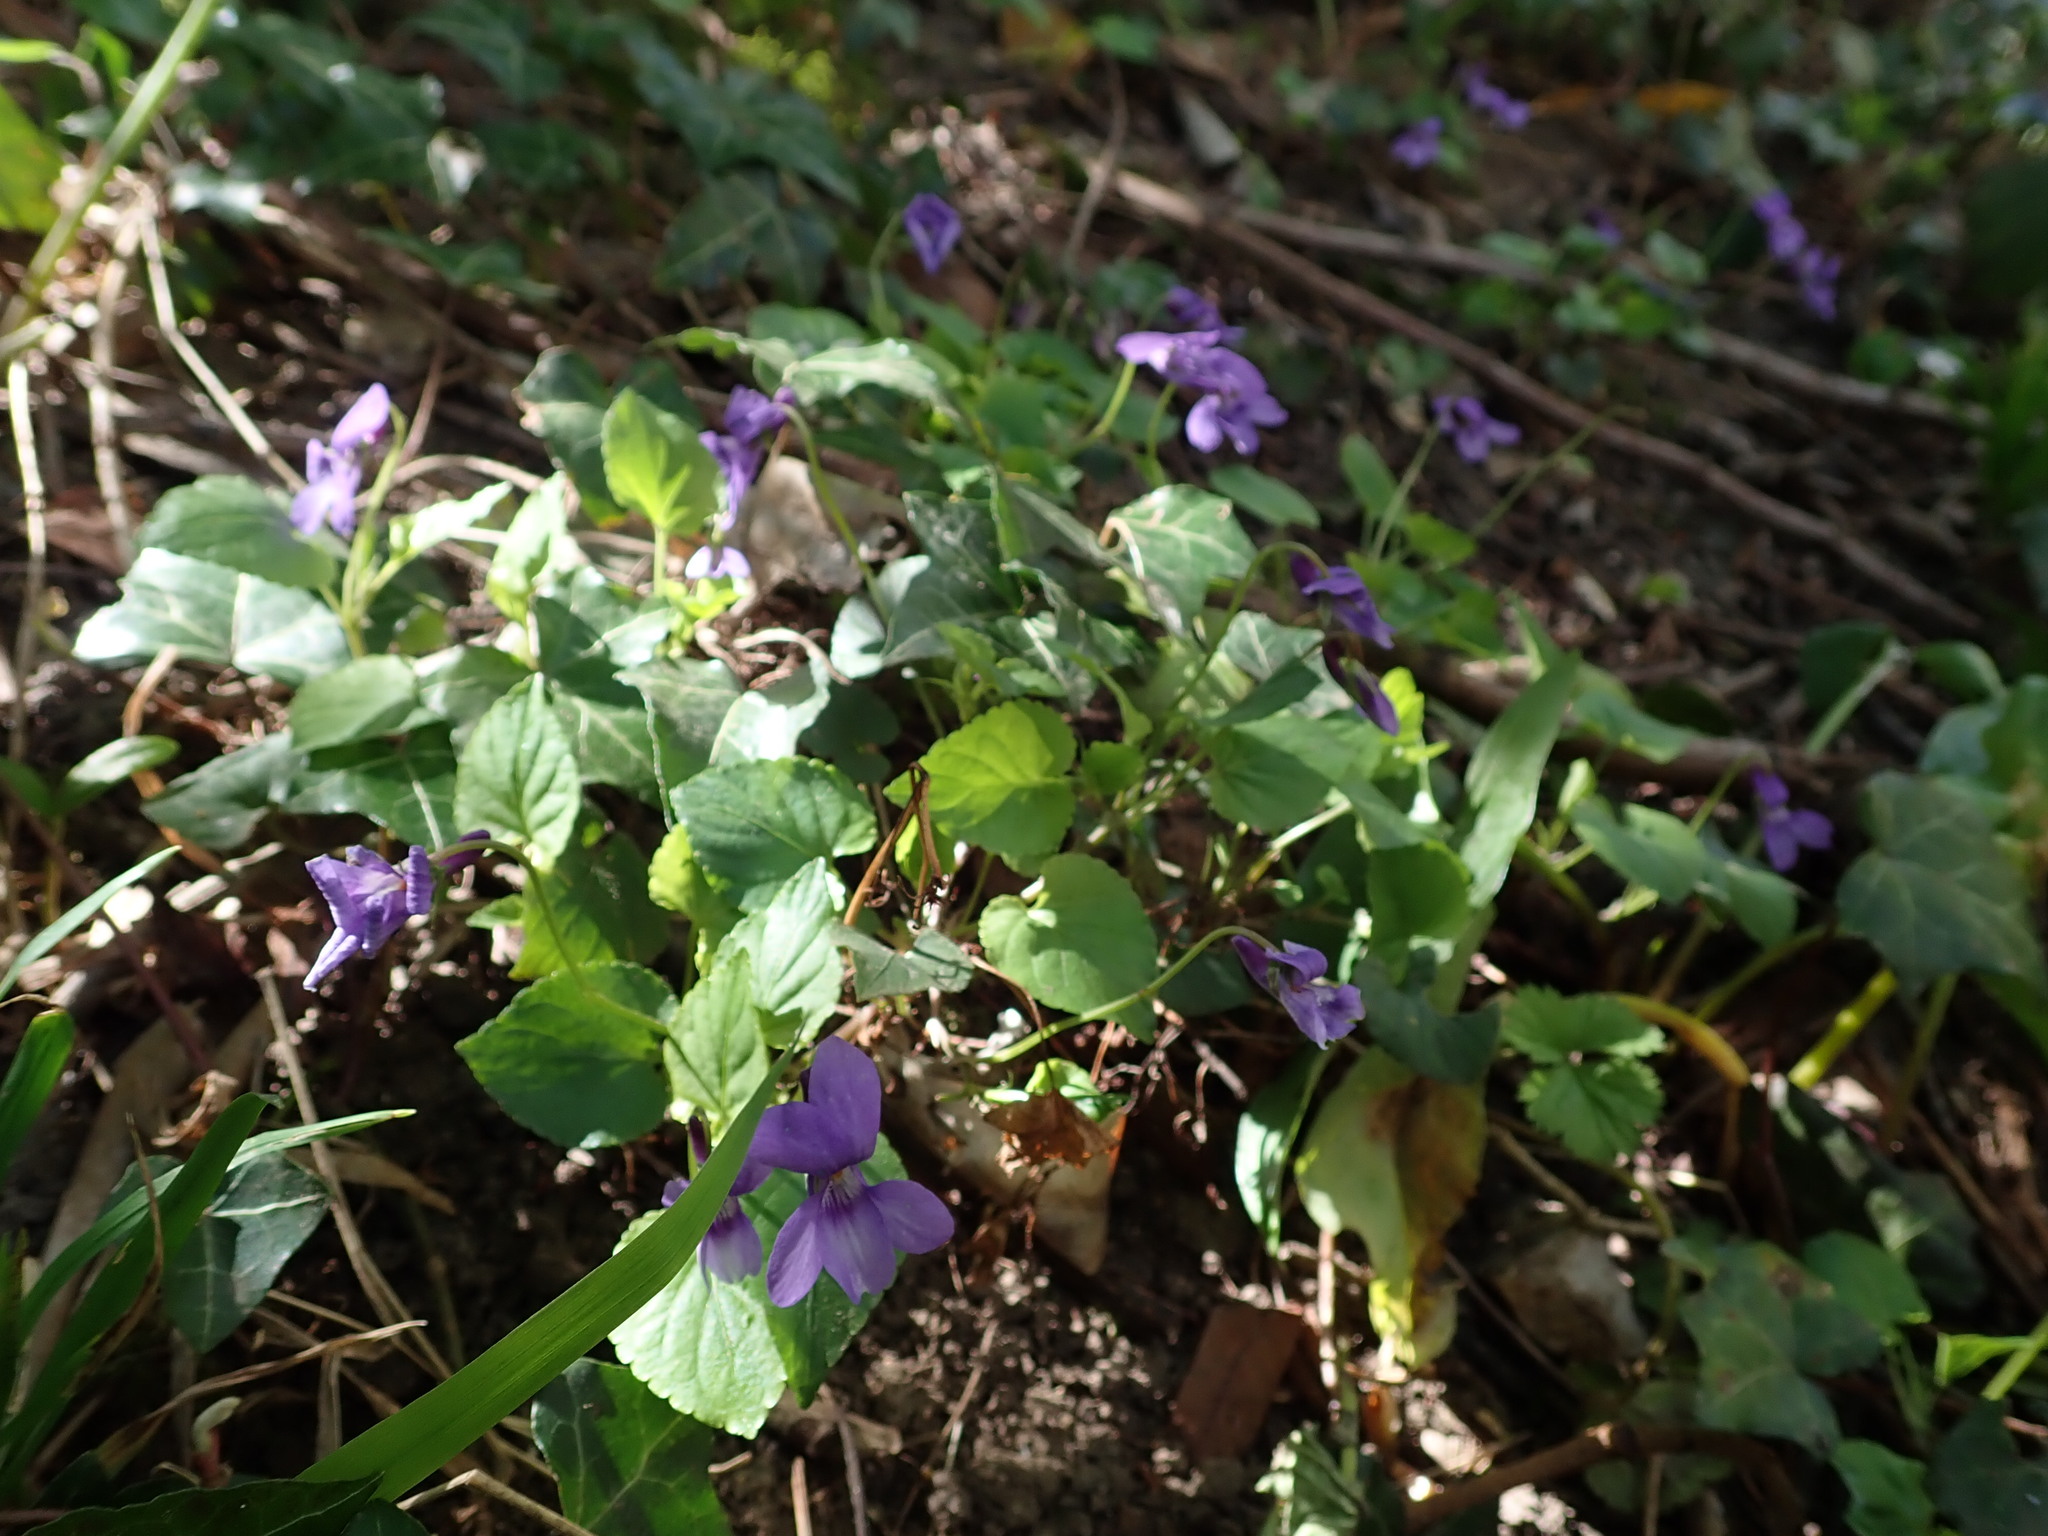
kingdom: Plantae
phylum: Tracheophyta
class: Magnoliopsida
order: Malpighiales
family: Violaceae
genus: Viola
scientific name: Viola reichenbachiana
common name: Early dog-violet
